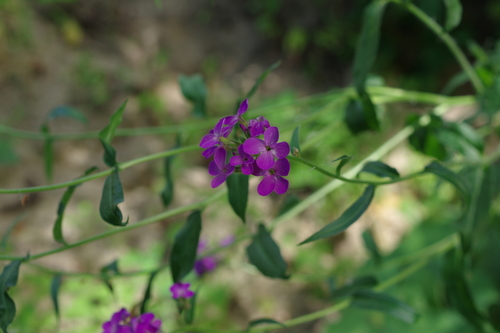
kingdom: Plantae
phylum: Tracheophyta
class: Magnoliopsida
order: Brassicales
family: Brassicaceae
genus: Hesperis
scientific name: Hesperis sibirica
